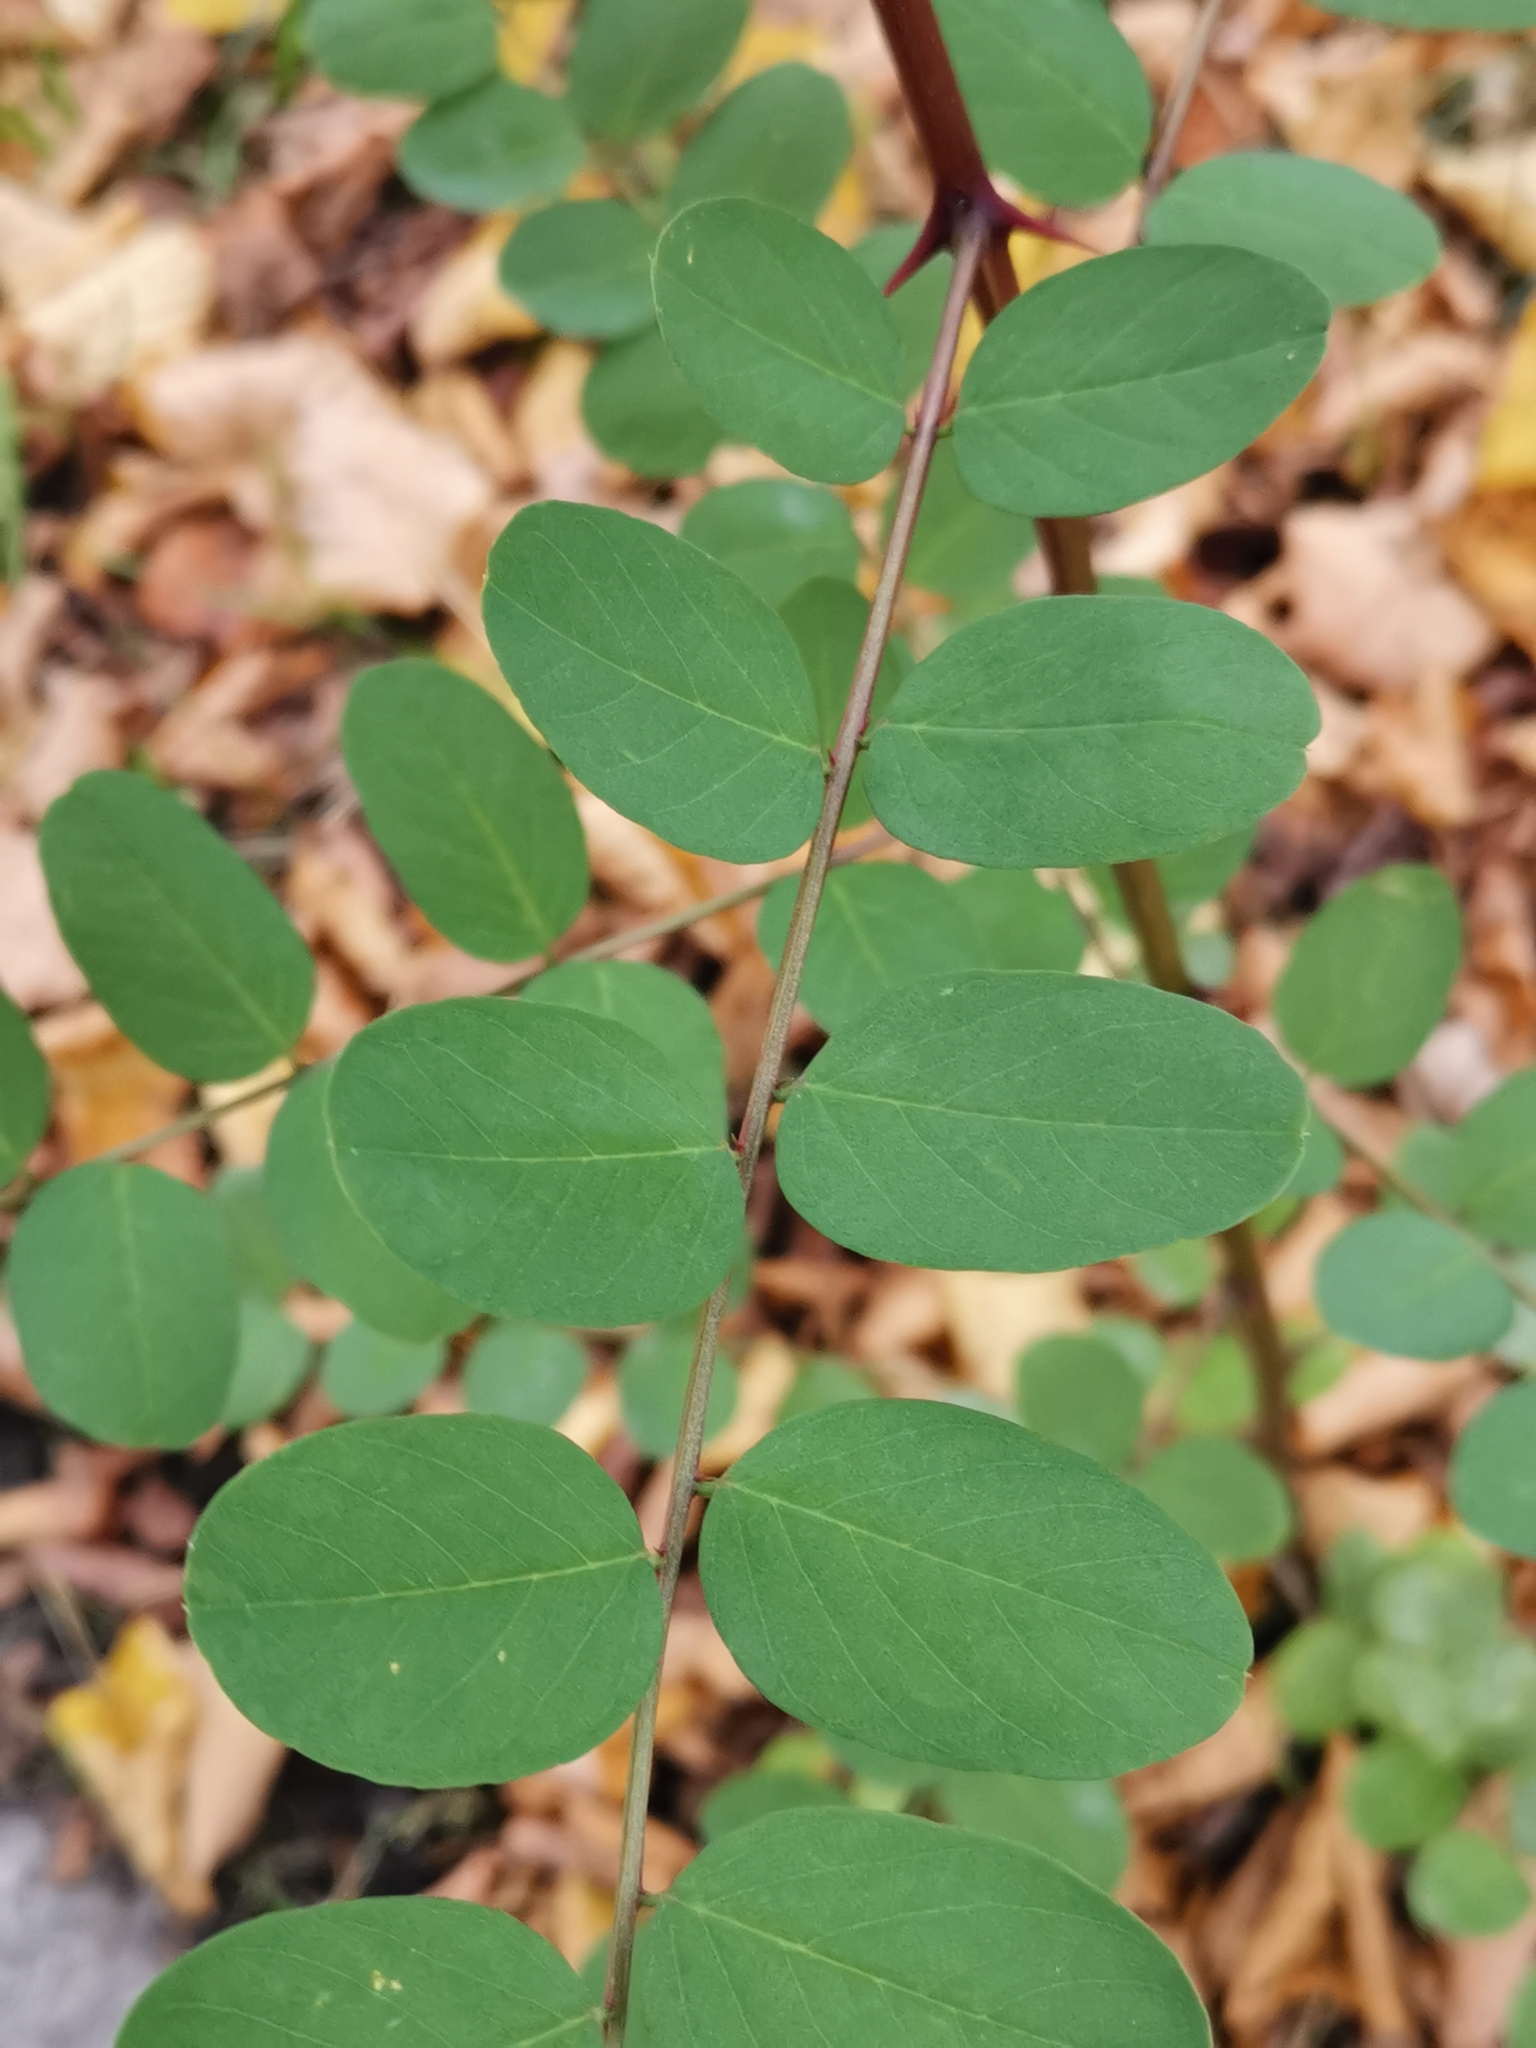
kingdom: Plantae
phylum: Tracheophyta
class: Magnoliopsida
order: Fabales
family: Fabaceae
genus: Robinia
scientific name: Robinia pseudoacacia
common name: Black locust
